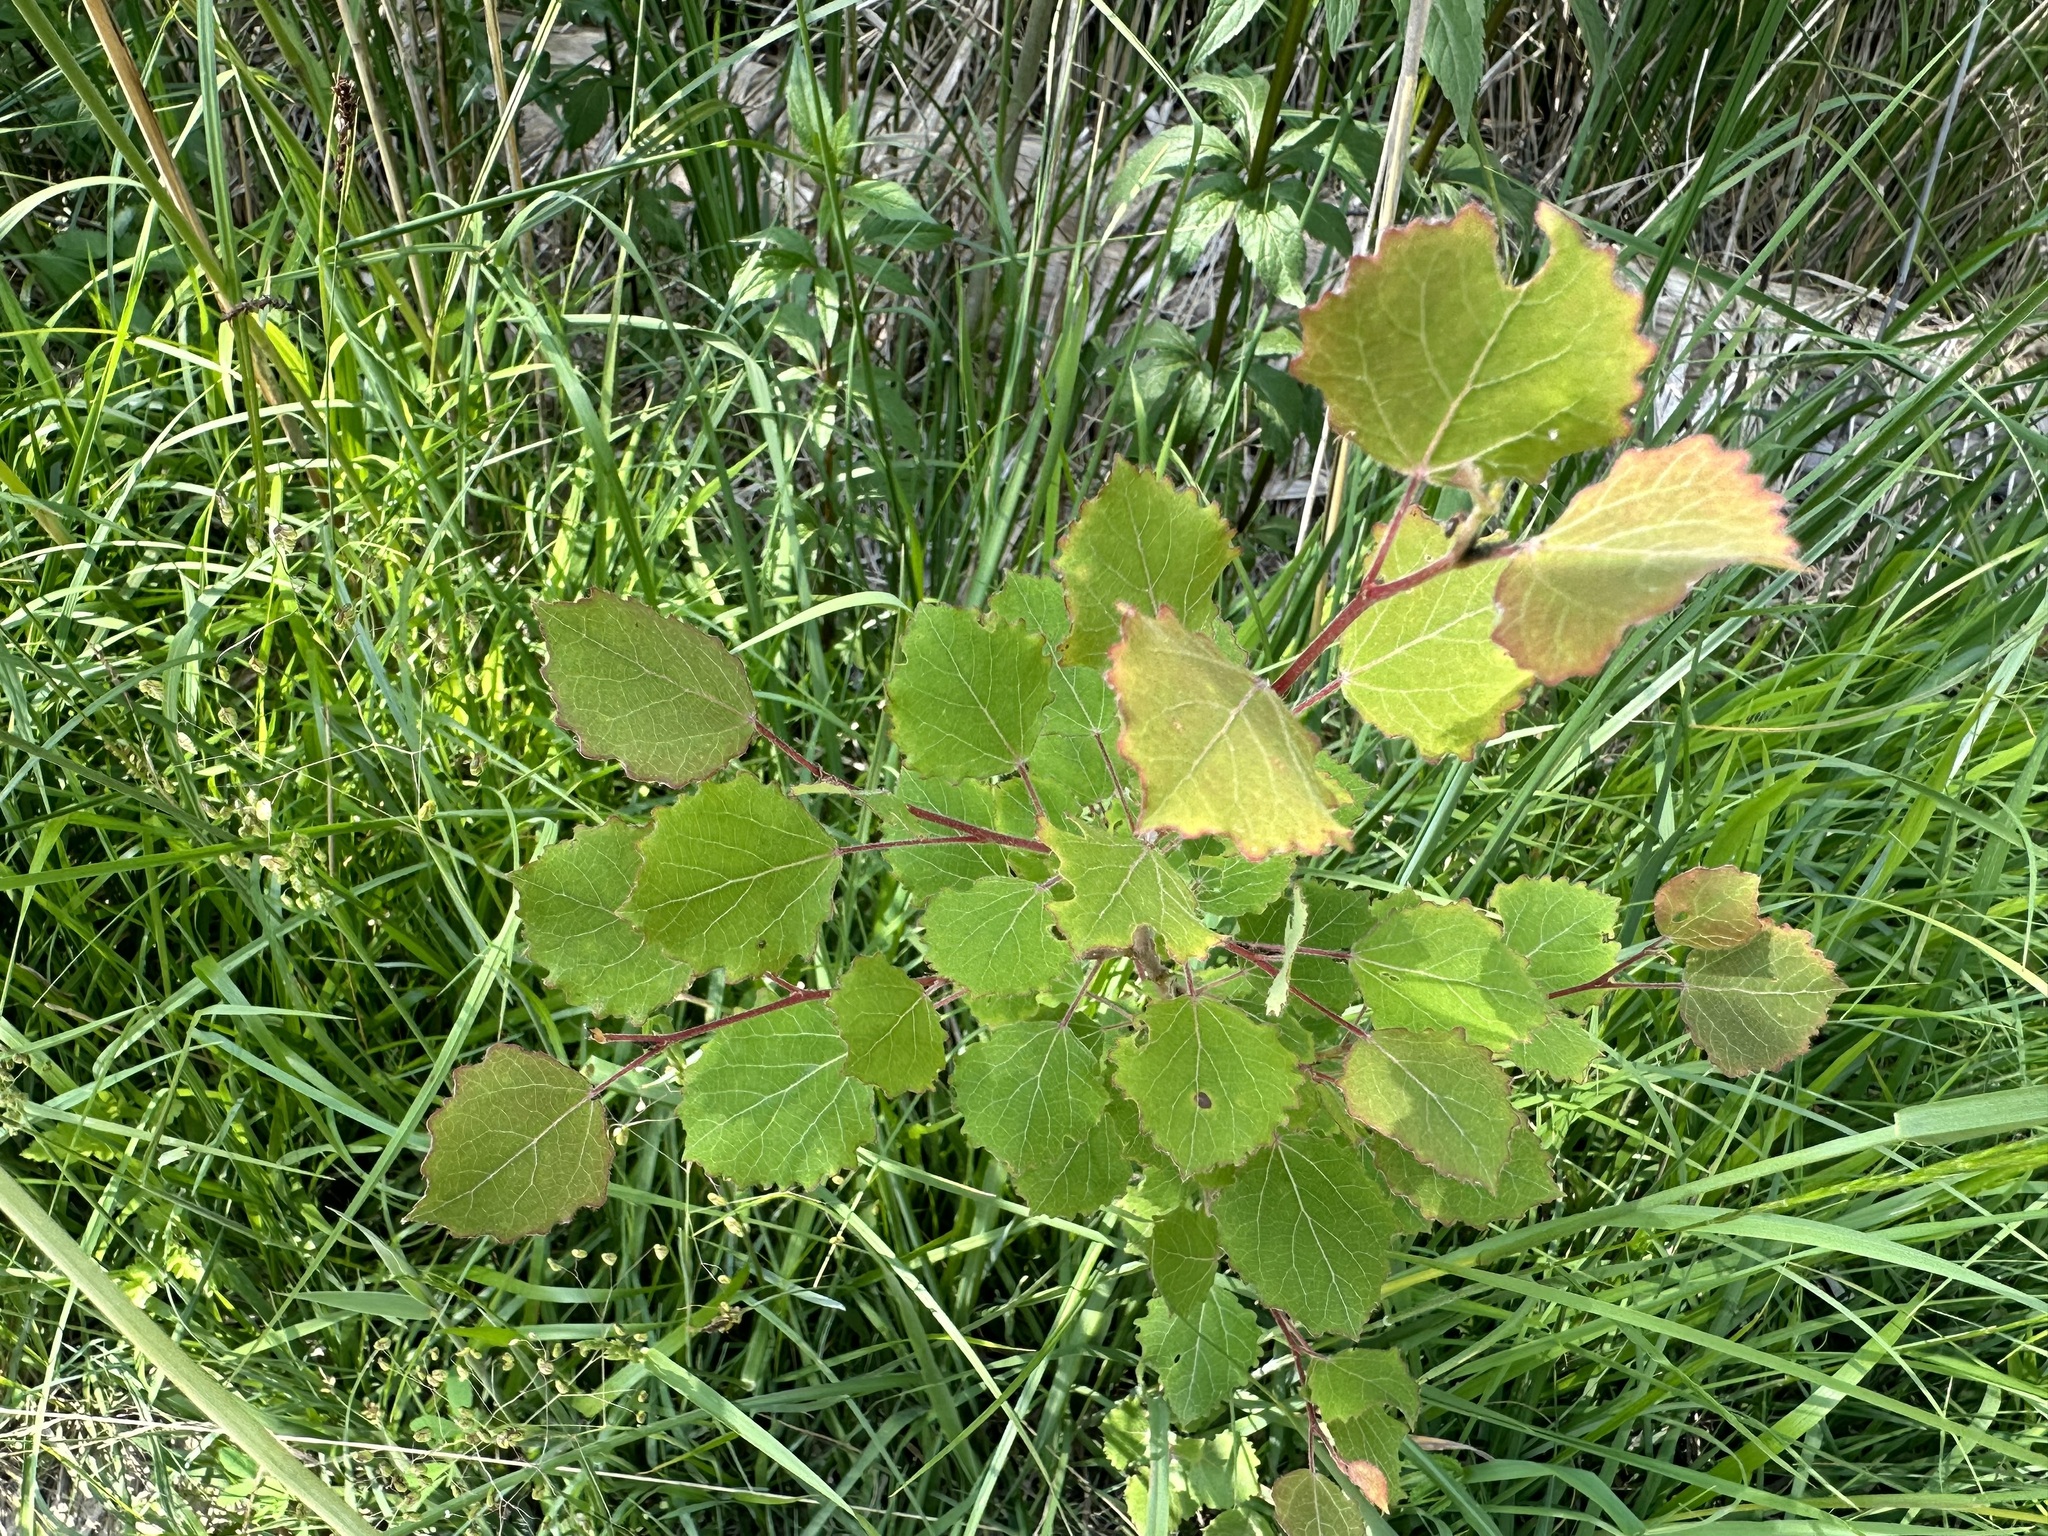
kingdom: Plantae
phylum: Tracheophyta
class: Magnoliopsida
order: Malpighiales
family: Salicaceae
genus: Populus
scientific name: Populus tremula
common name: European aspen
